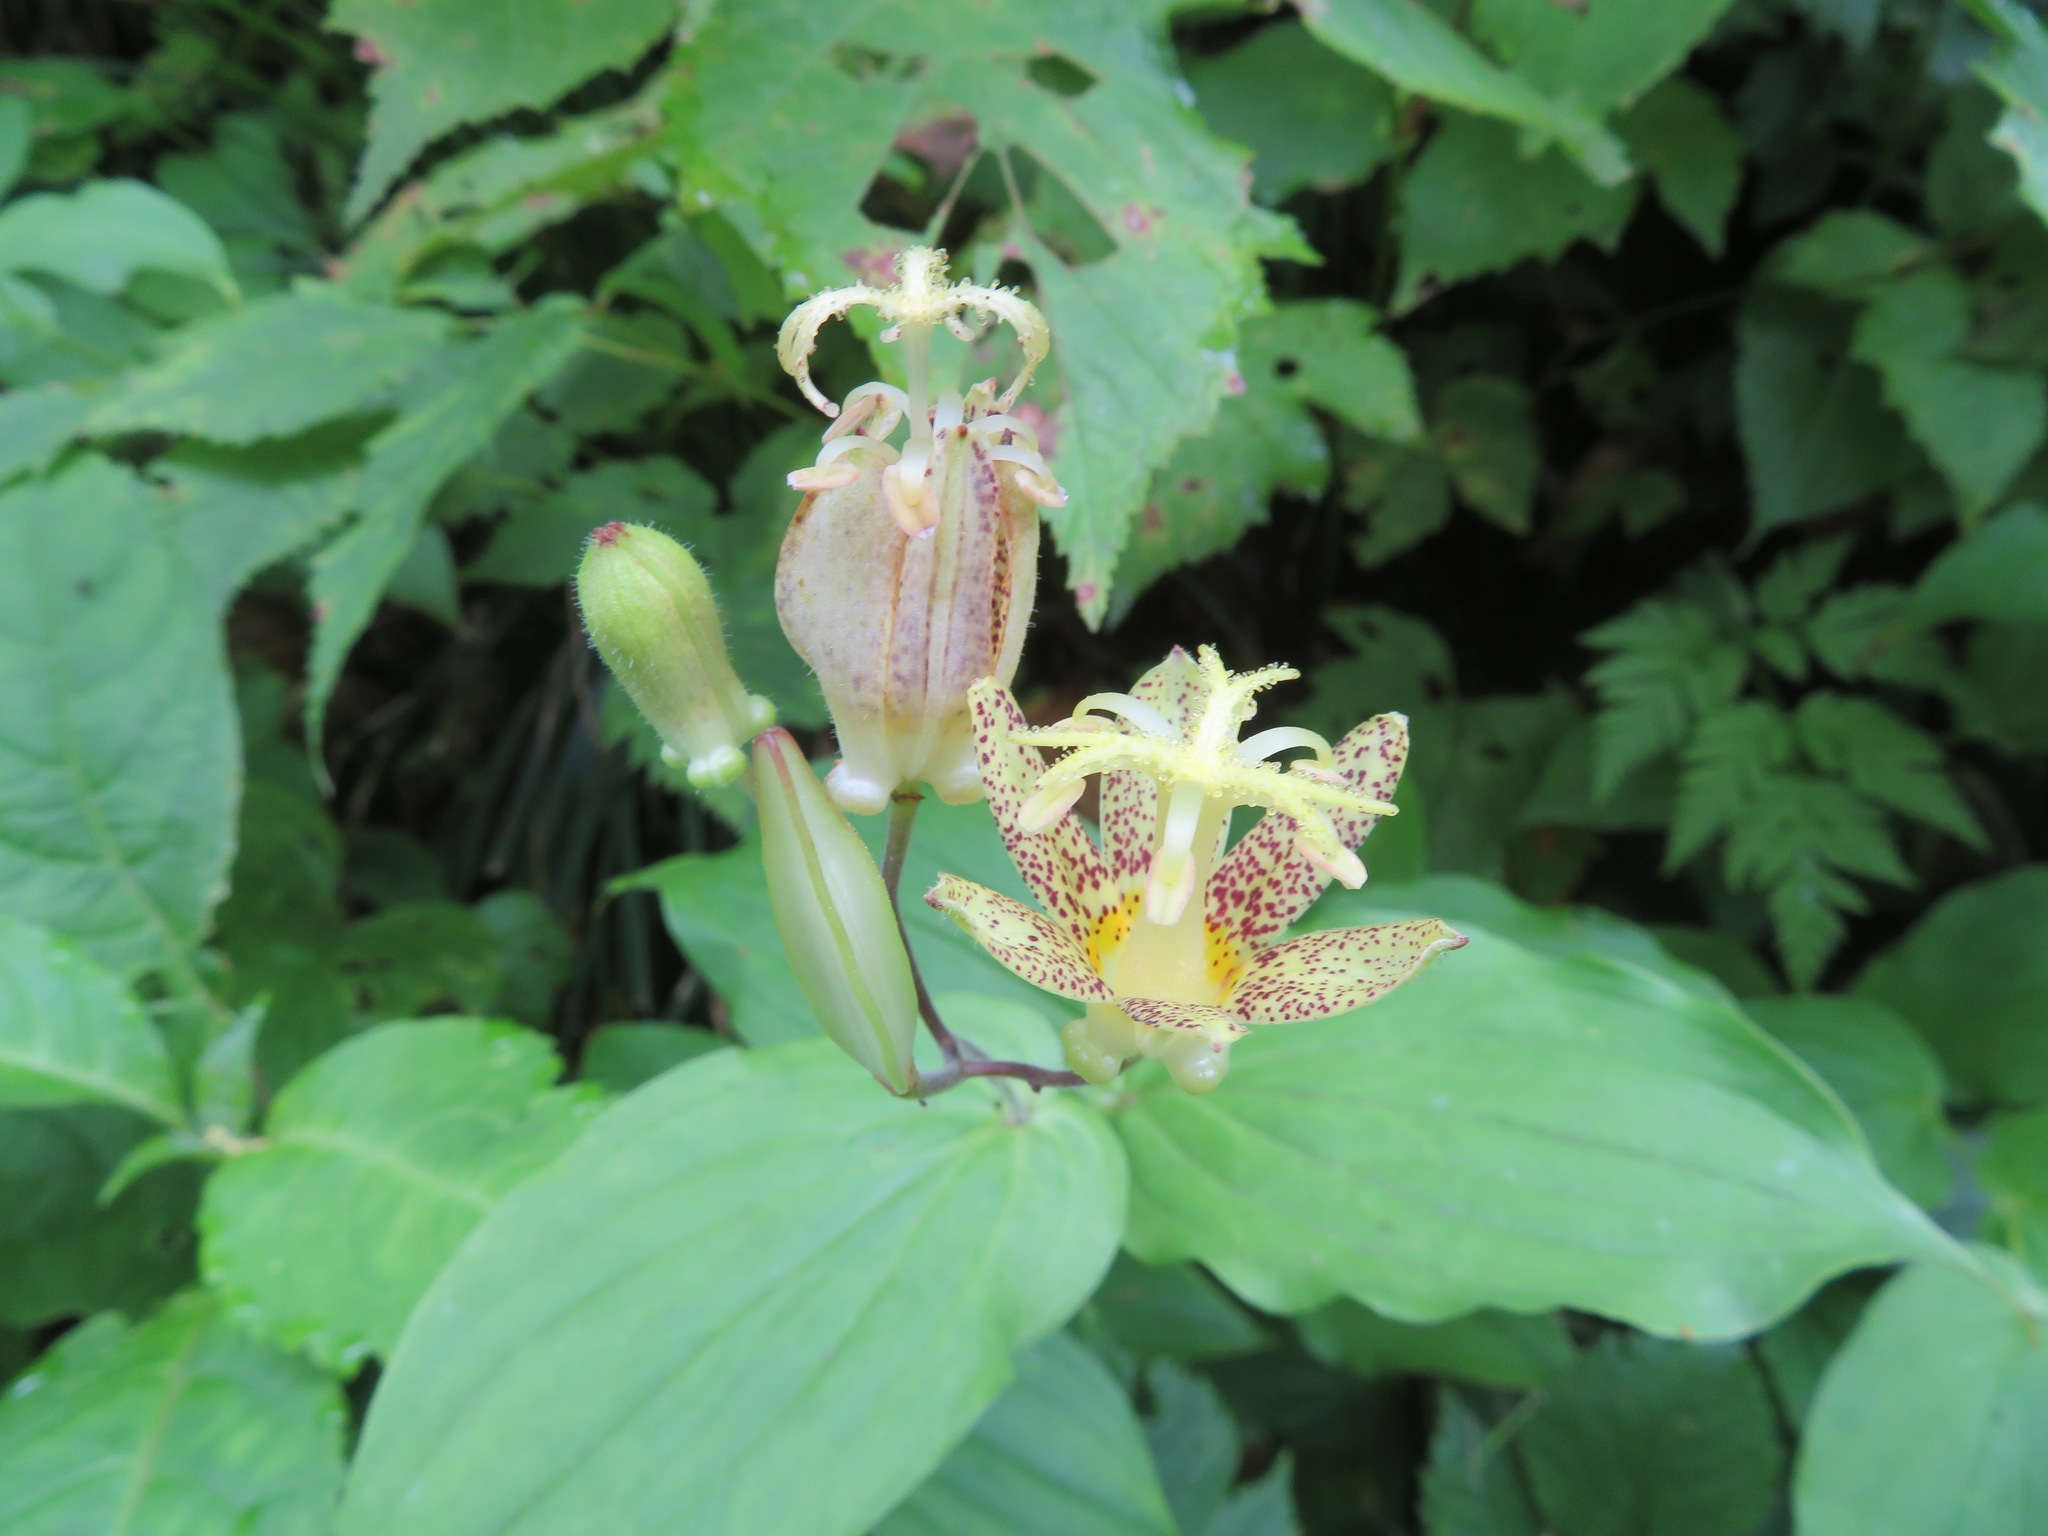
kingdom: Plantae
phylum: Tracheophyta
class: Liliopsida
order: Liliales
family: Liliaceae
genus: Tricyrtis
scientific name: Tricyrtis latifolia
